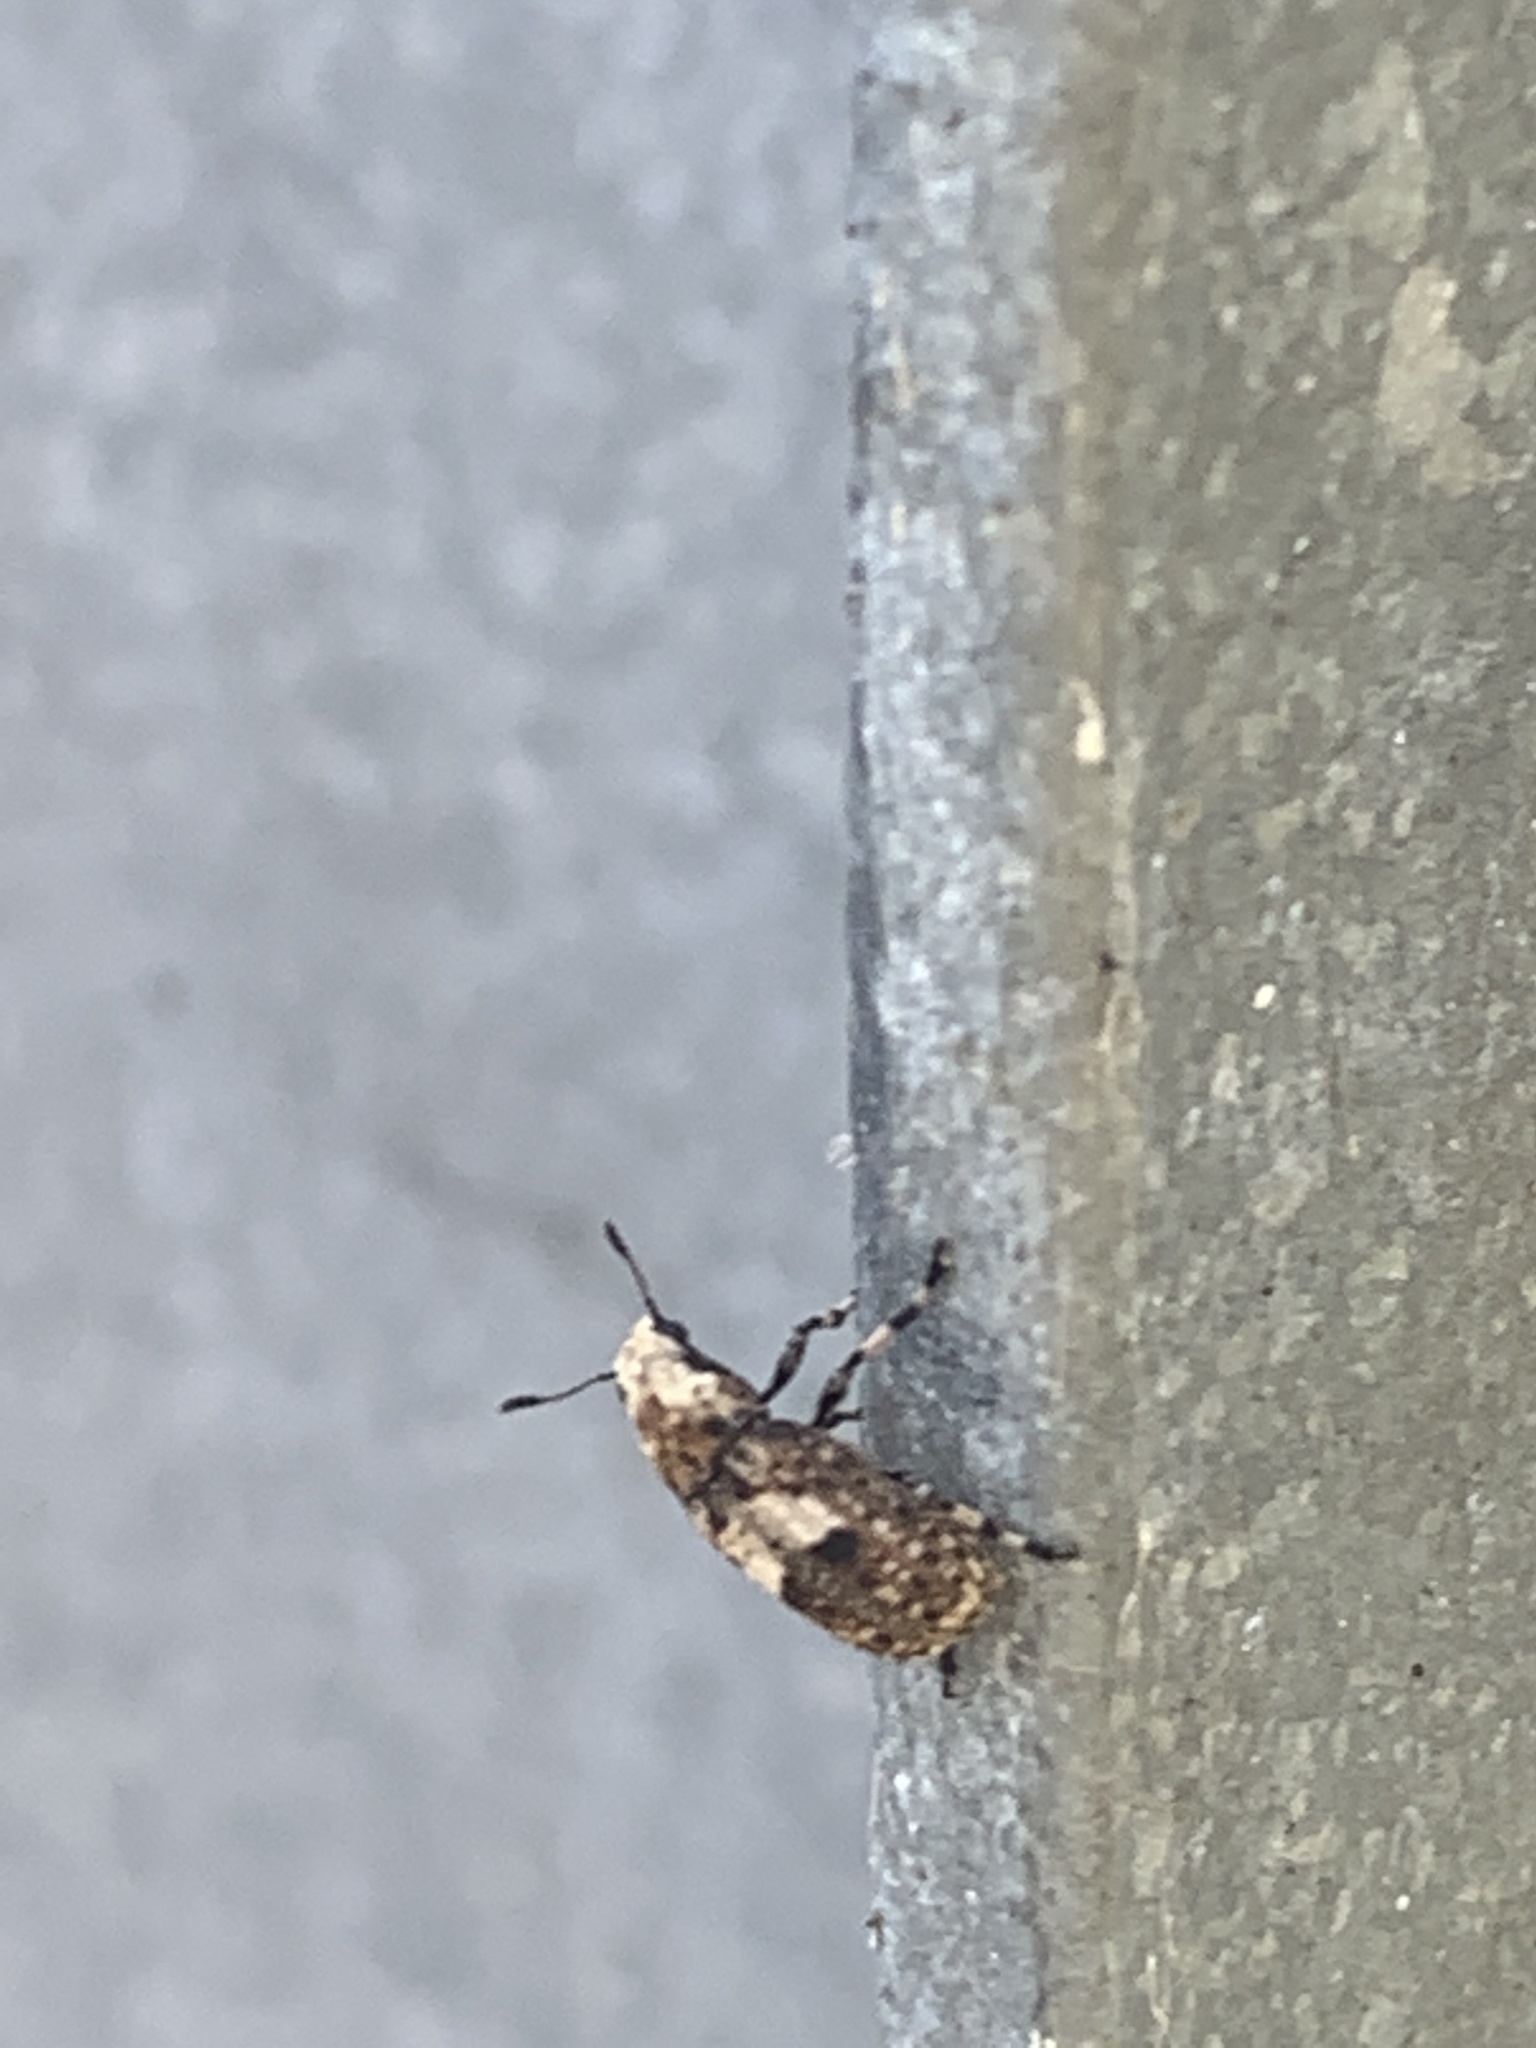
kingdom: Animalia
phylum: Arthropoda
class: Insecta
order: Coleoptera
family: Anthribidae
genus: Euparius
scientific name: Euparius marmoreus
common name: Marbled fungus weevil
